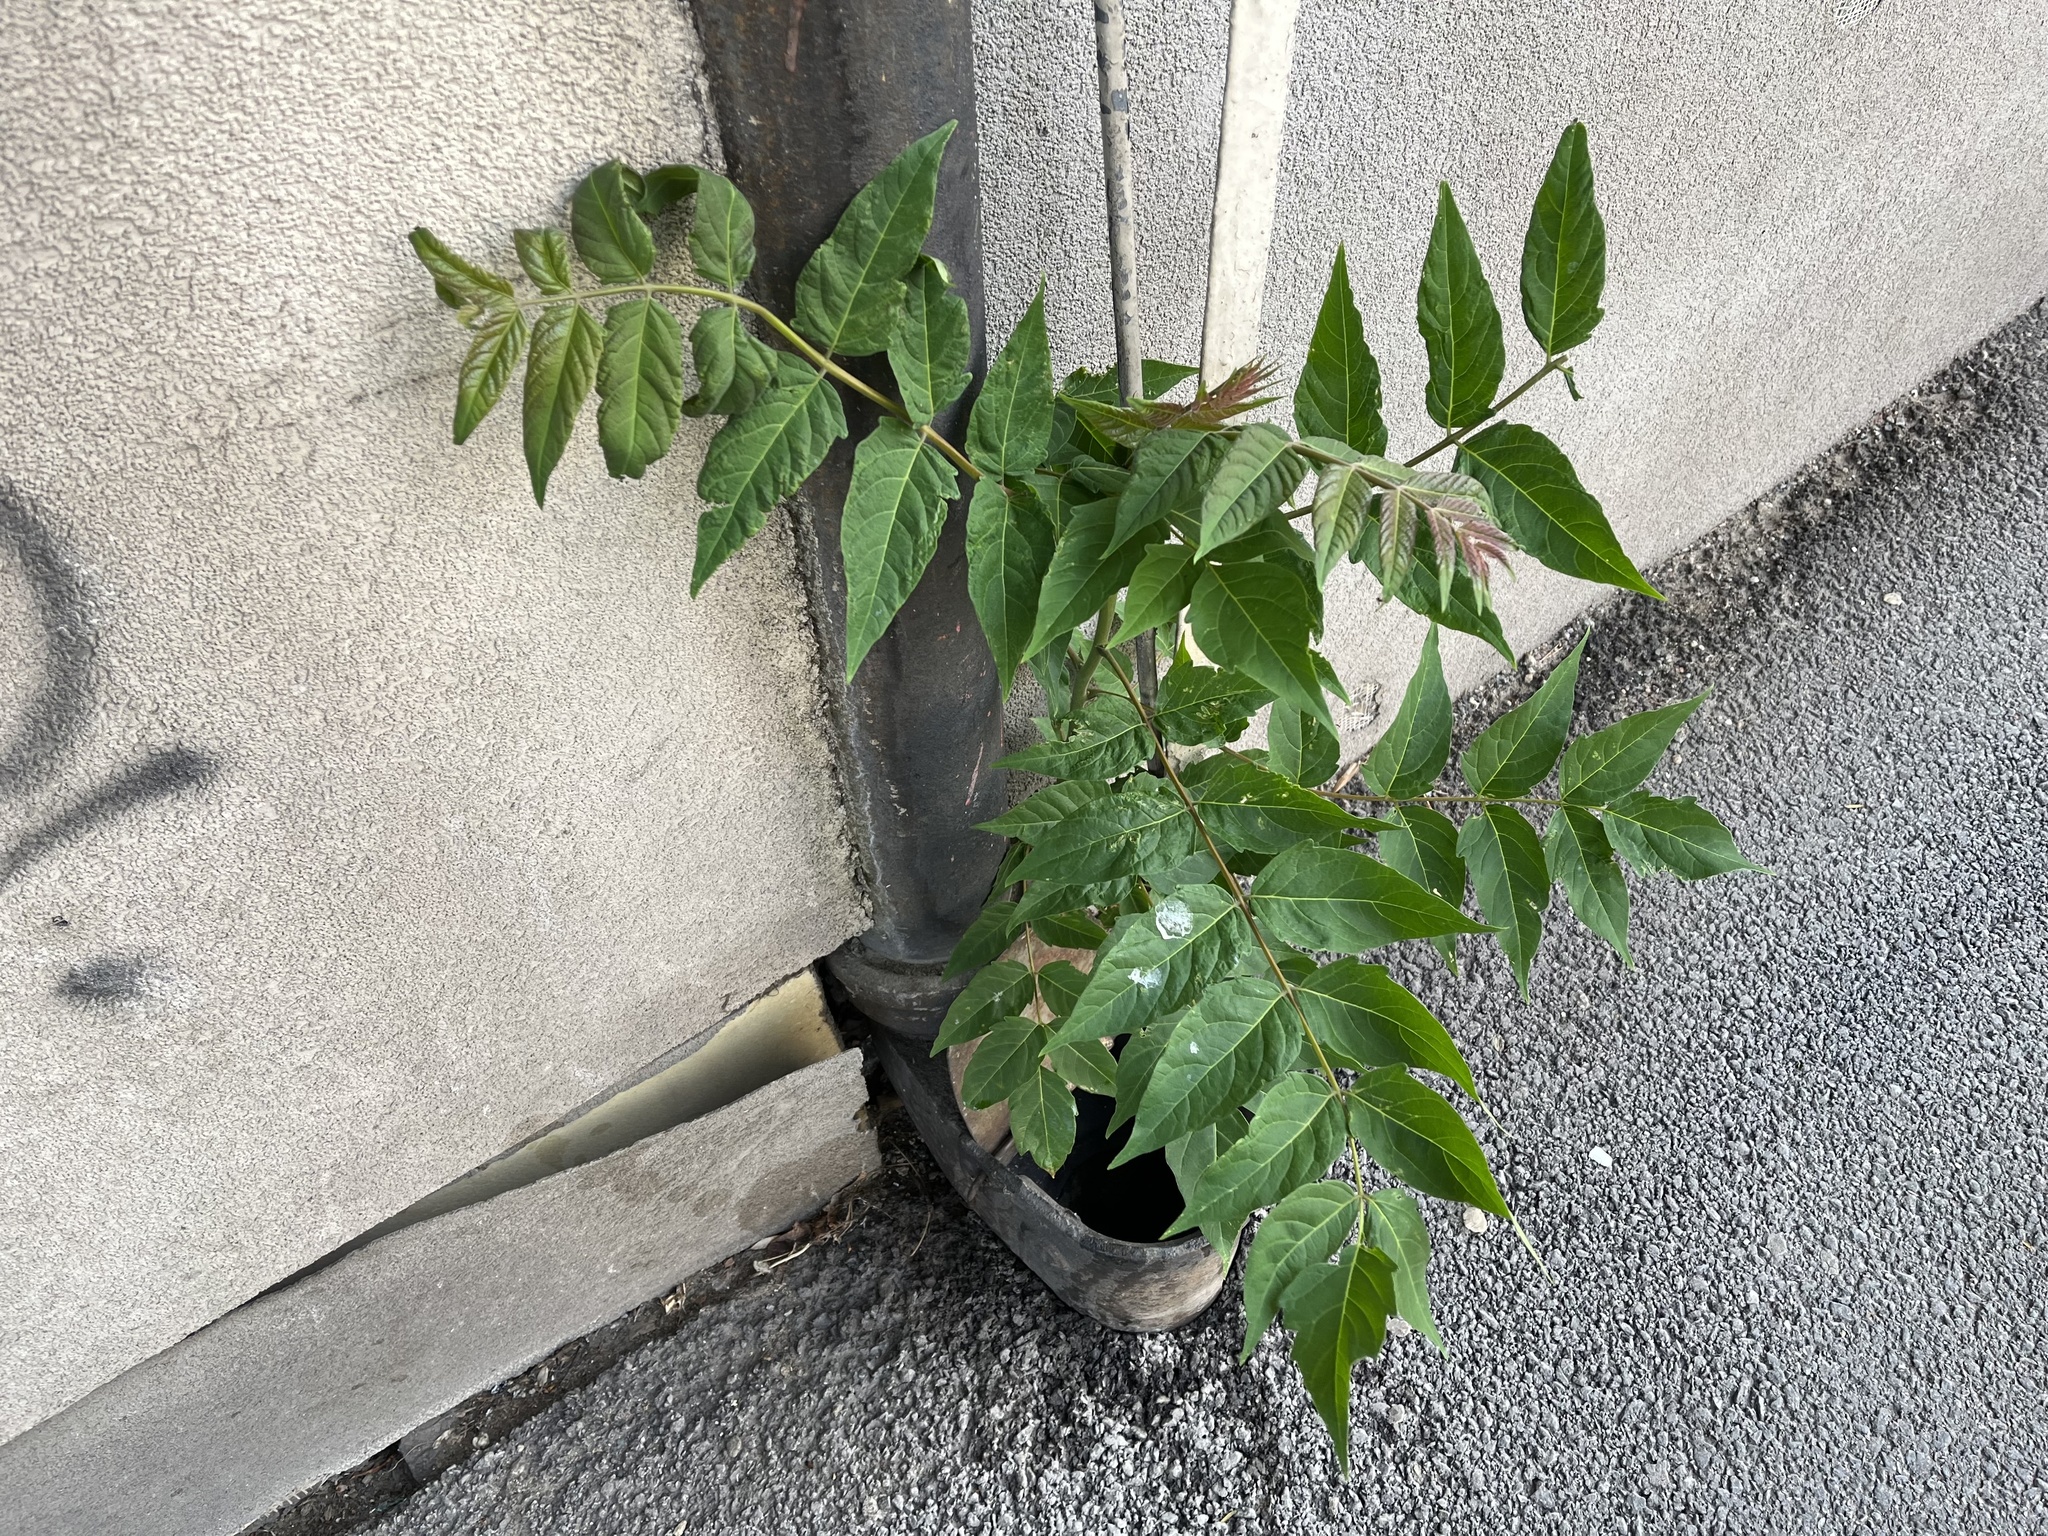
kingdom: Plantae
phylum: Tracheophyta
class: Magnoliopsida
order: Sapindales
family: Simaroubaceae
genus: Ailanthus
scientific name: Ailanthus altissima
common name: Tree-of-heaven
